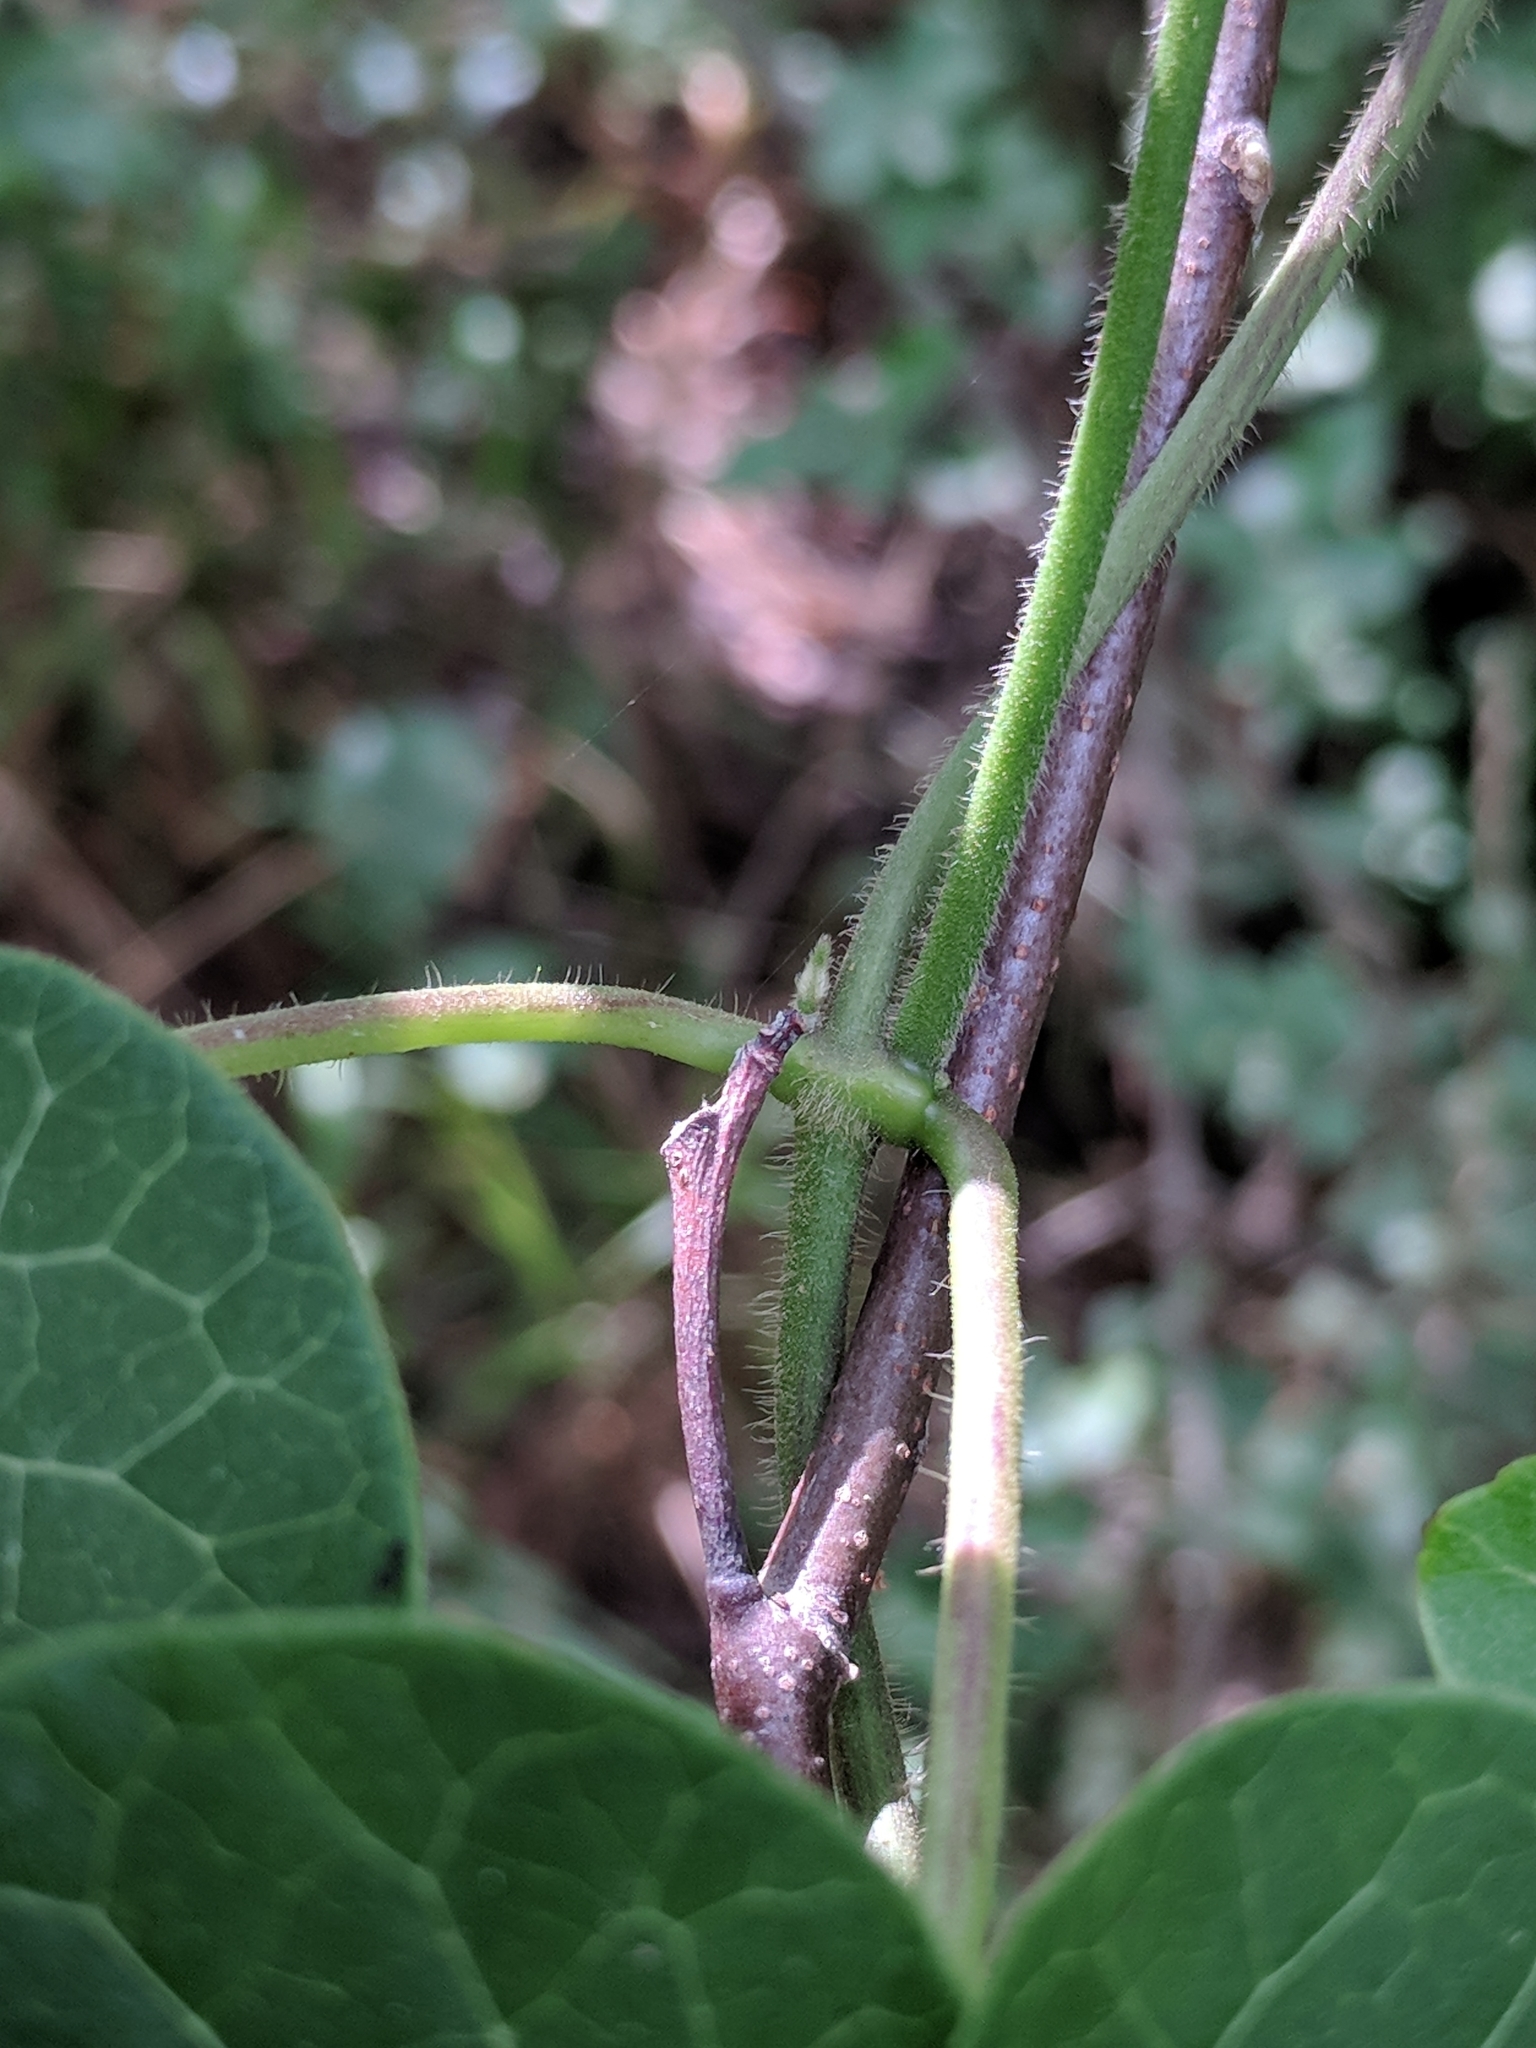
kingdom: Plantae
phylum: Tracheophyta
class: Magnoliopsida
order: Gentianales
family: Apocynaceae
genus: Gonolobus
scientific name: Gonolobus suberosus
